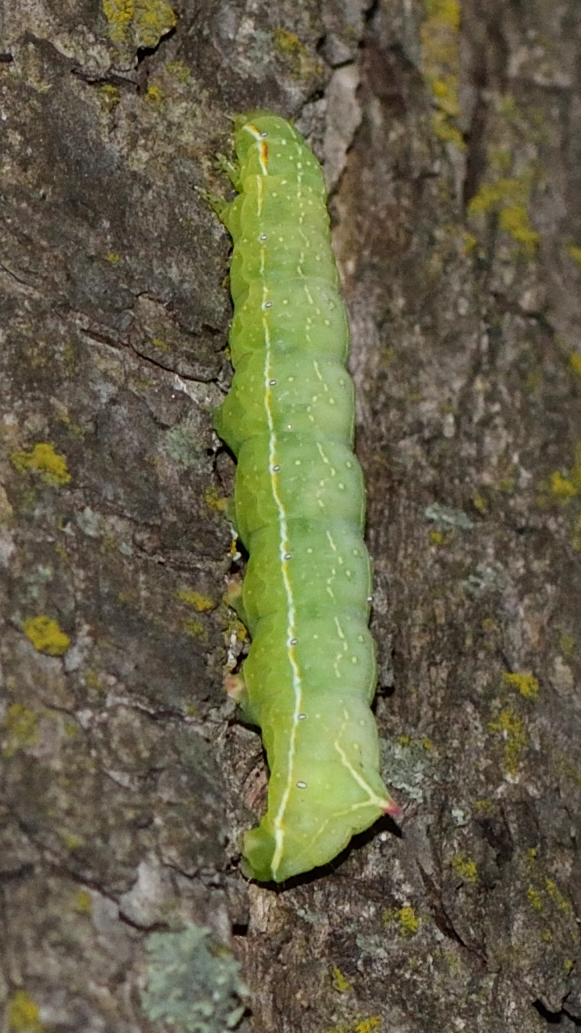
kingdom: Animalia
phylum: Arthropoda
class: Insecta
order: Lepidoptera
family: Noctuidae
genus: Amphipyra
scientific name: Amphipyra berbera
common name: Svensson's copper underwing
